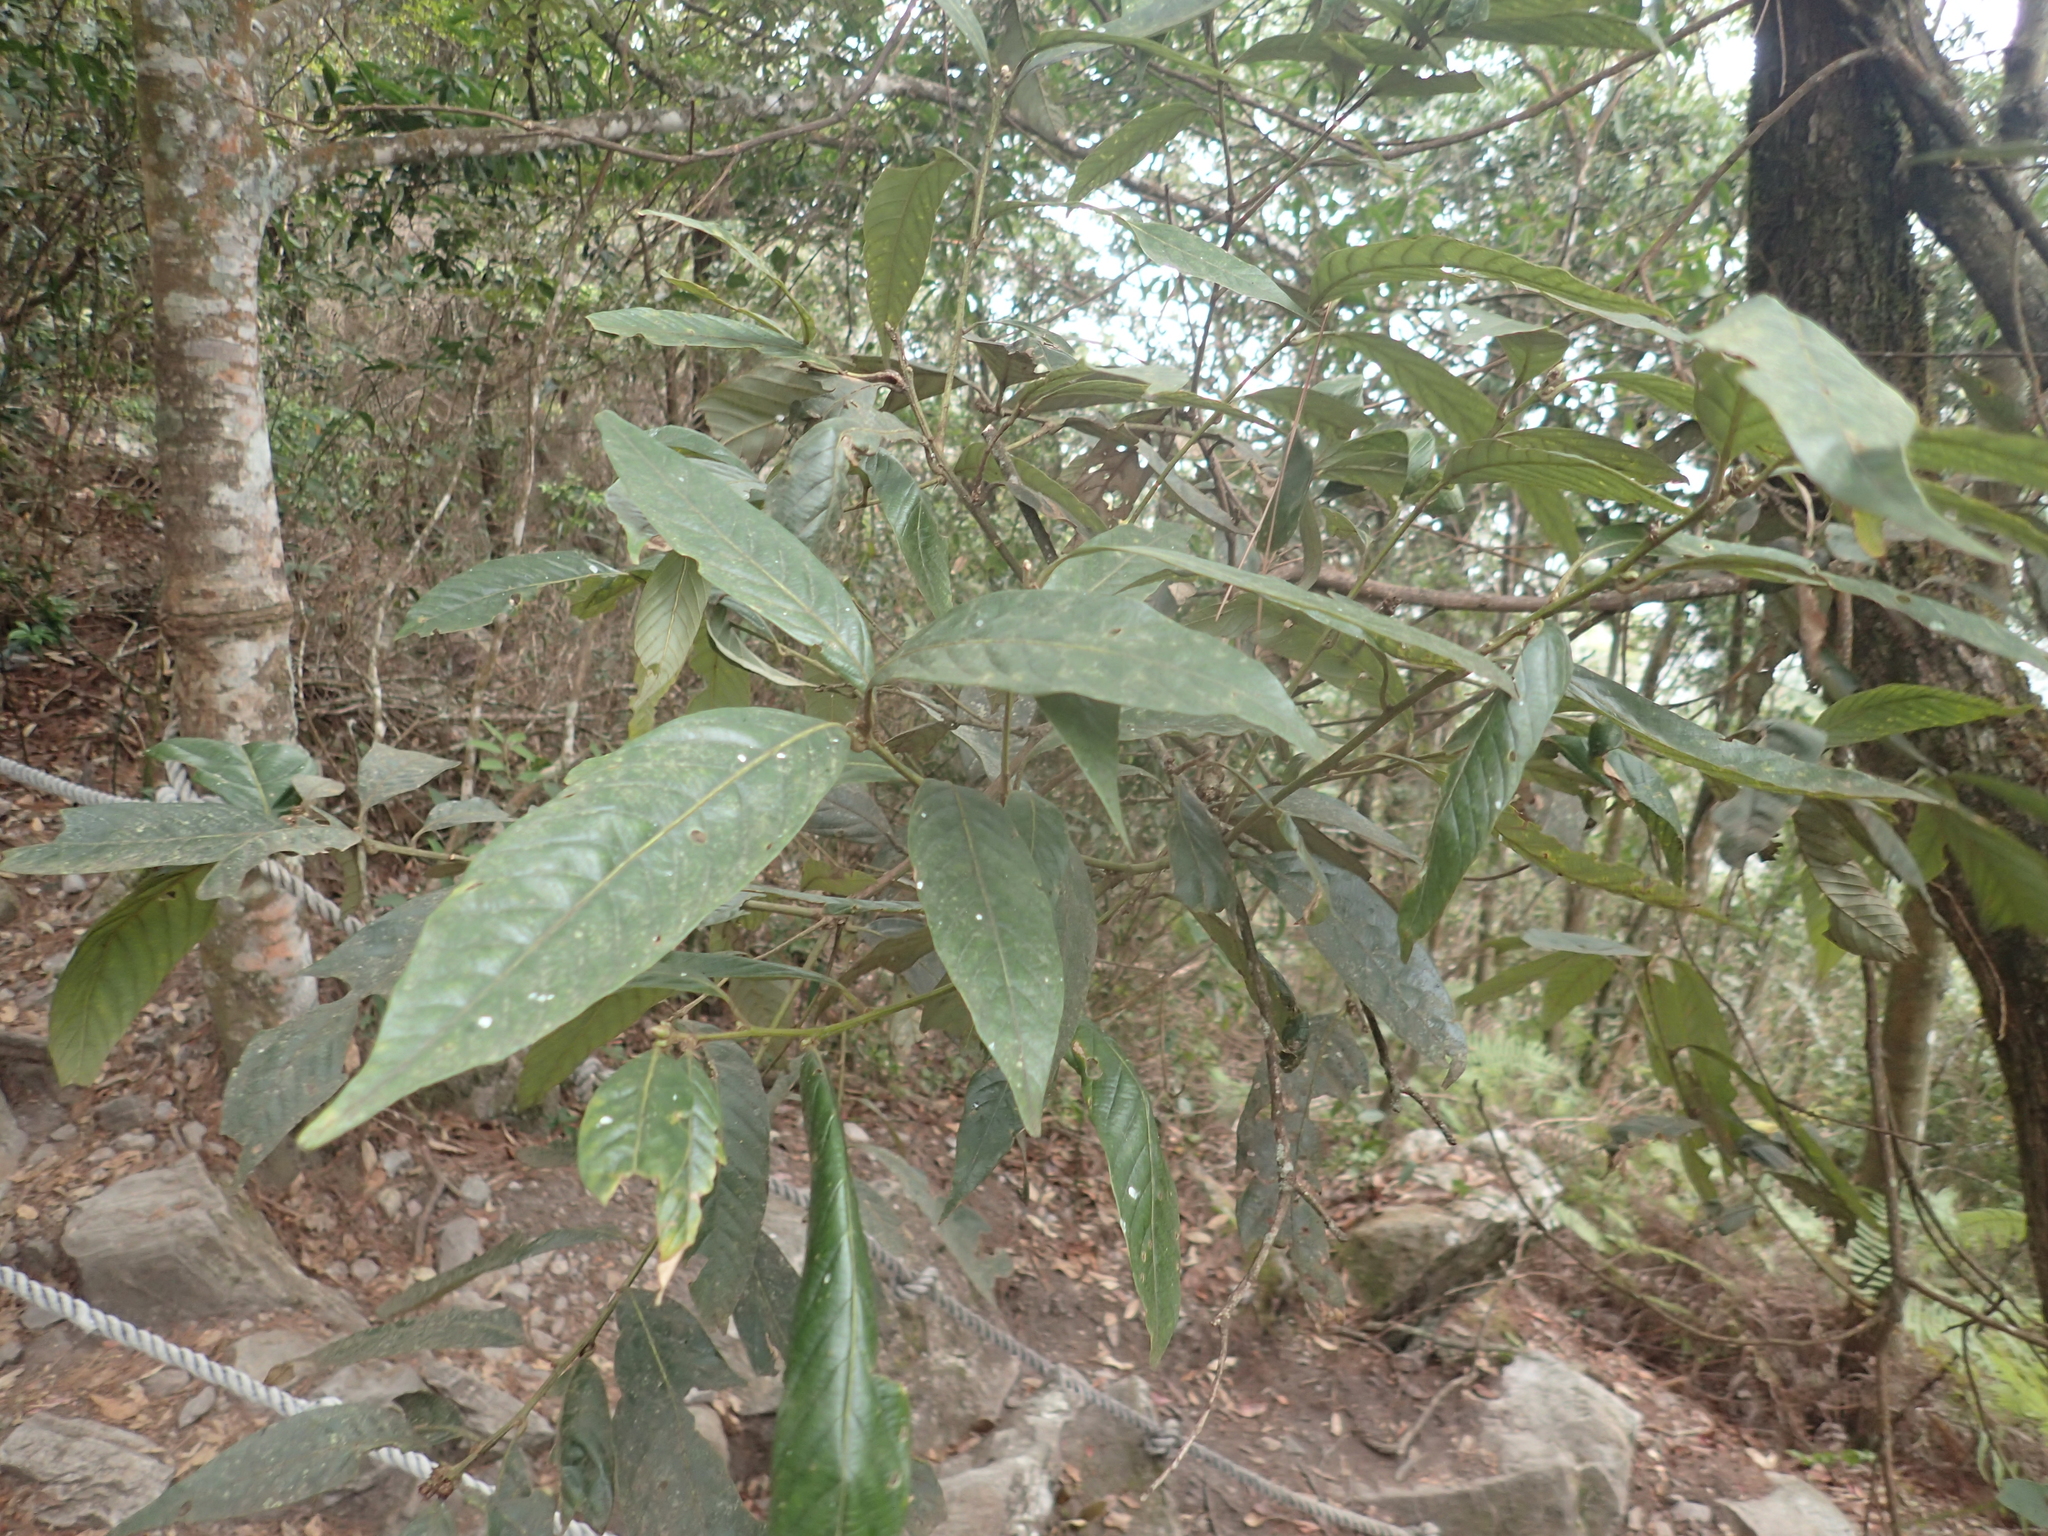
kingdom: Plantae
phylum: Tracheophyta
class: Magnoliopsida
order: Fagales
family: Fagaceae
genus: Lithocarpus
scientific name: Lithocarpus amygdalifolius
